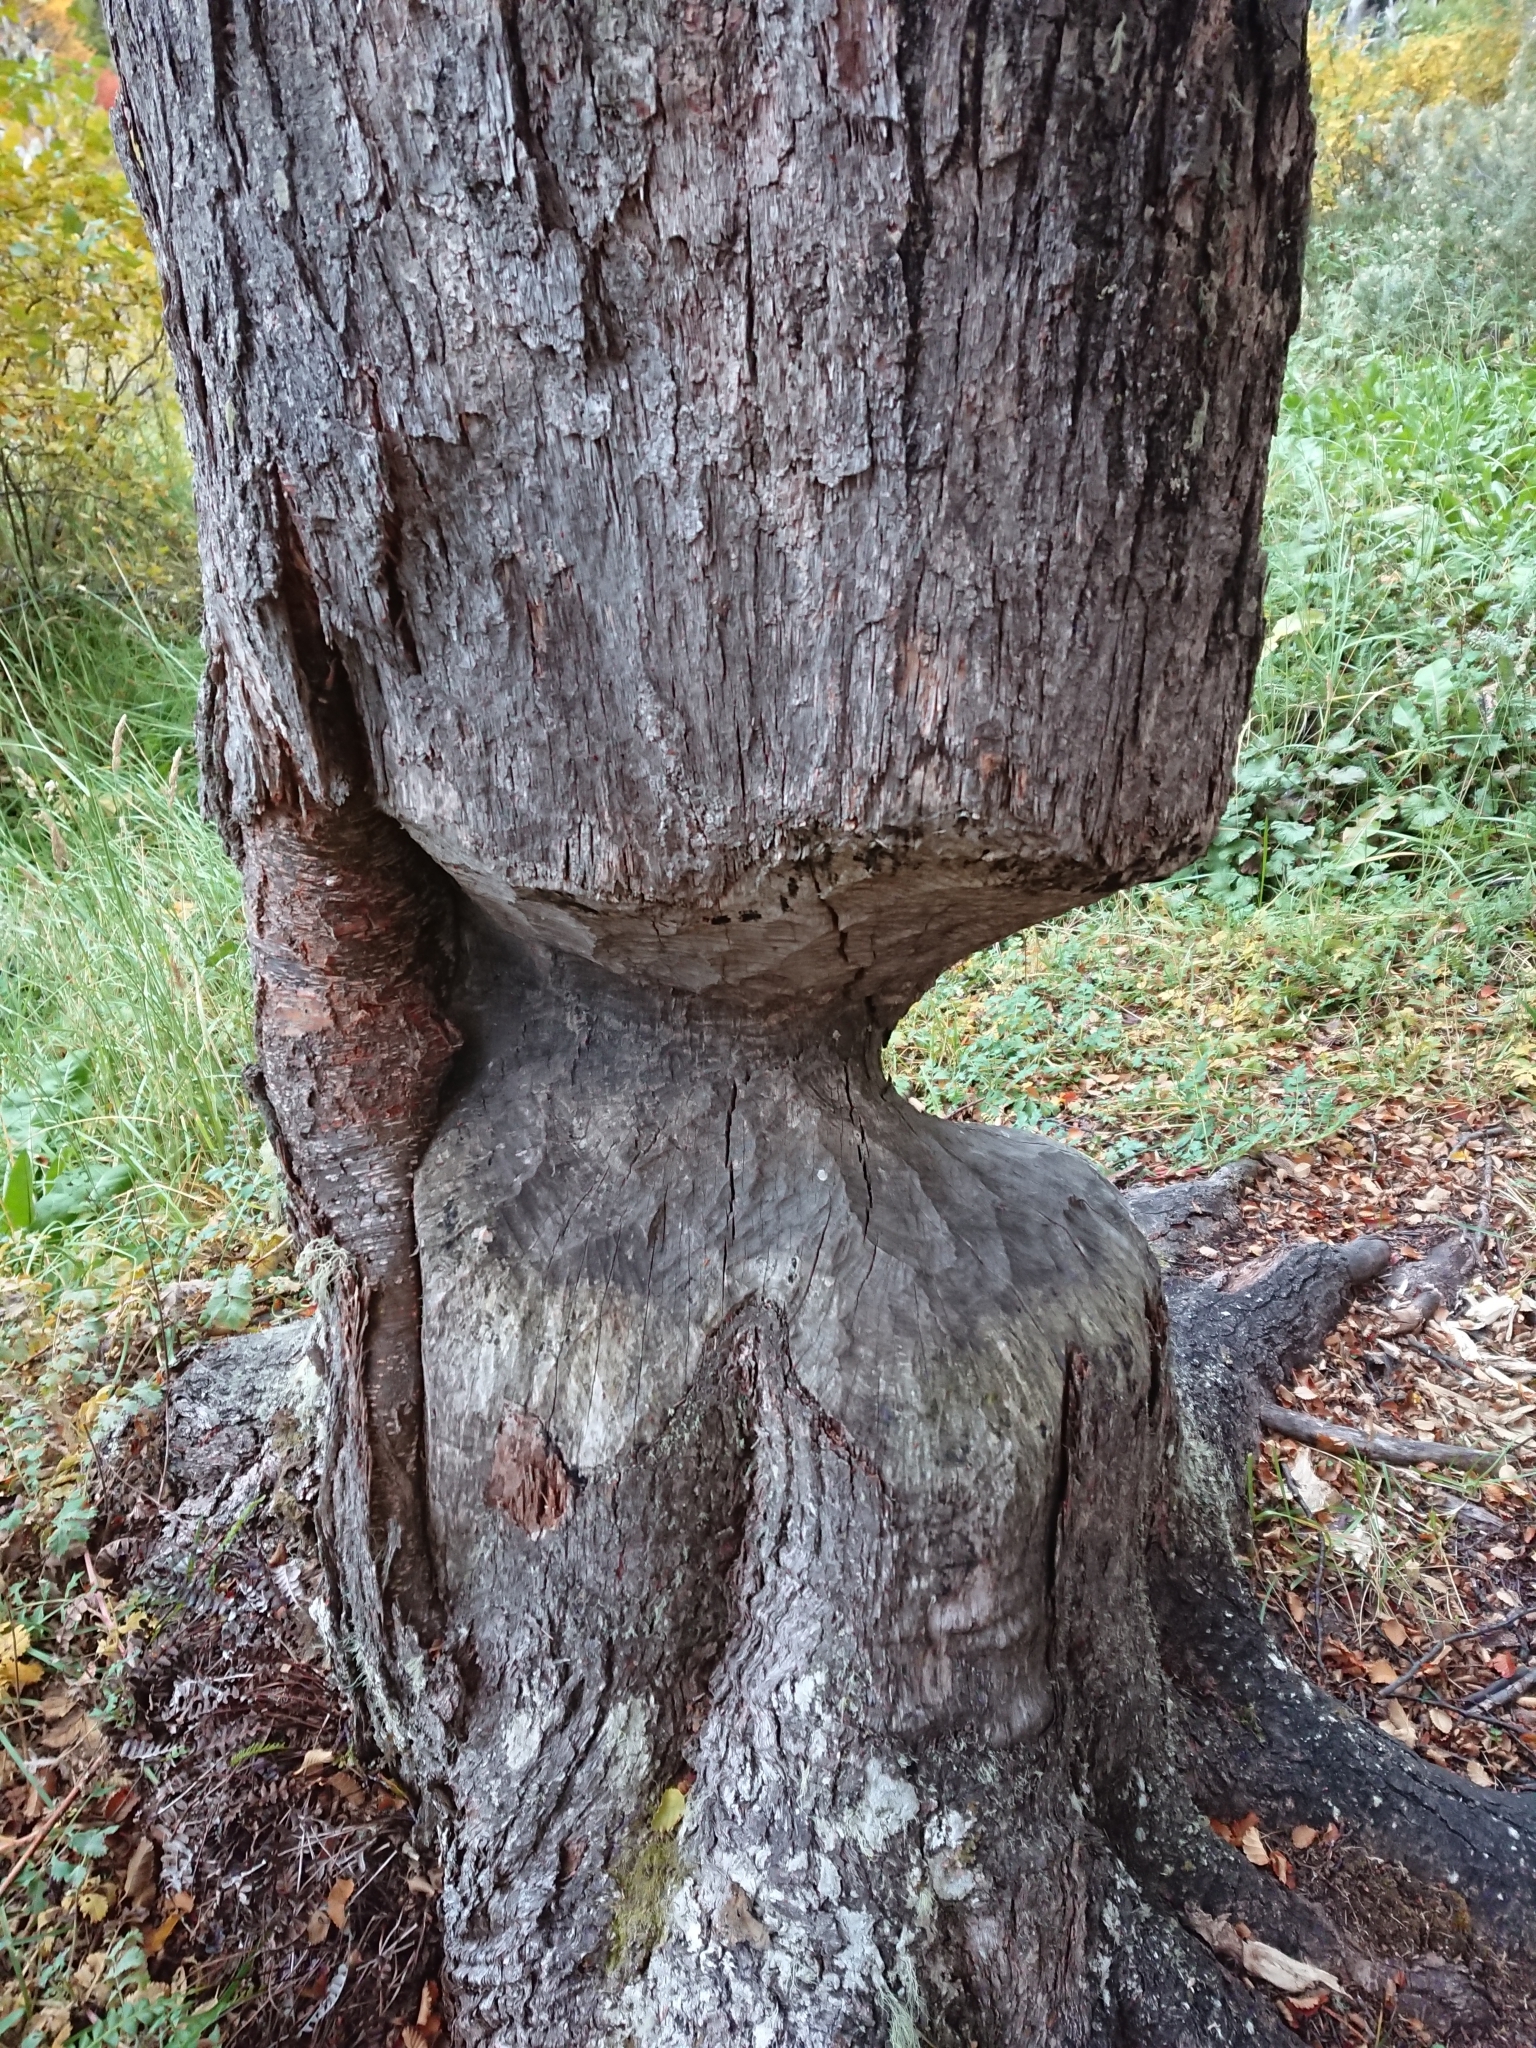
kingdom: Animalia
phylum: Chordata
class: Mammalia
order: Rodentia
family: Castoridae
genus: Castor
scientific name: Castor canadensis
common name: American beaver
